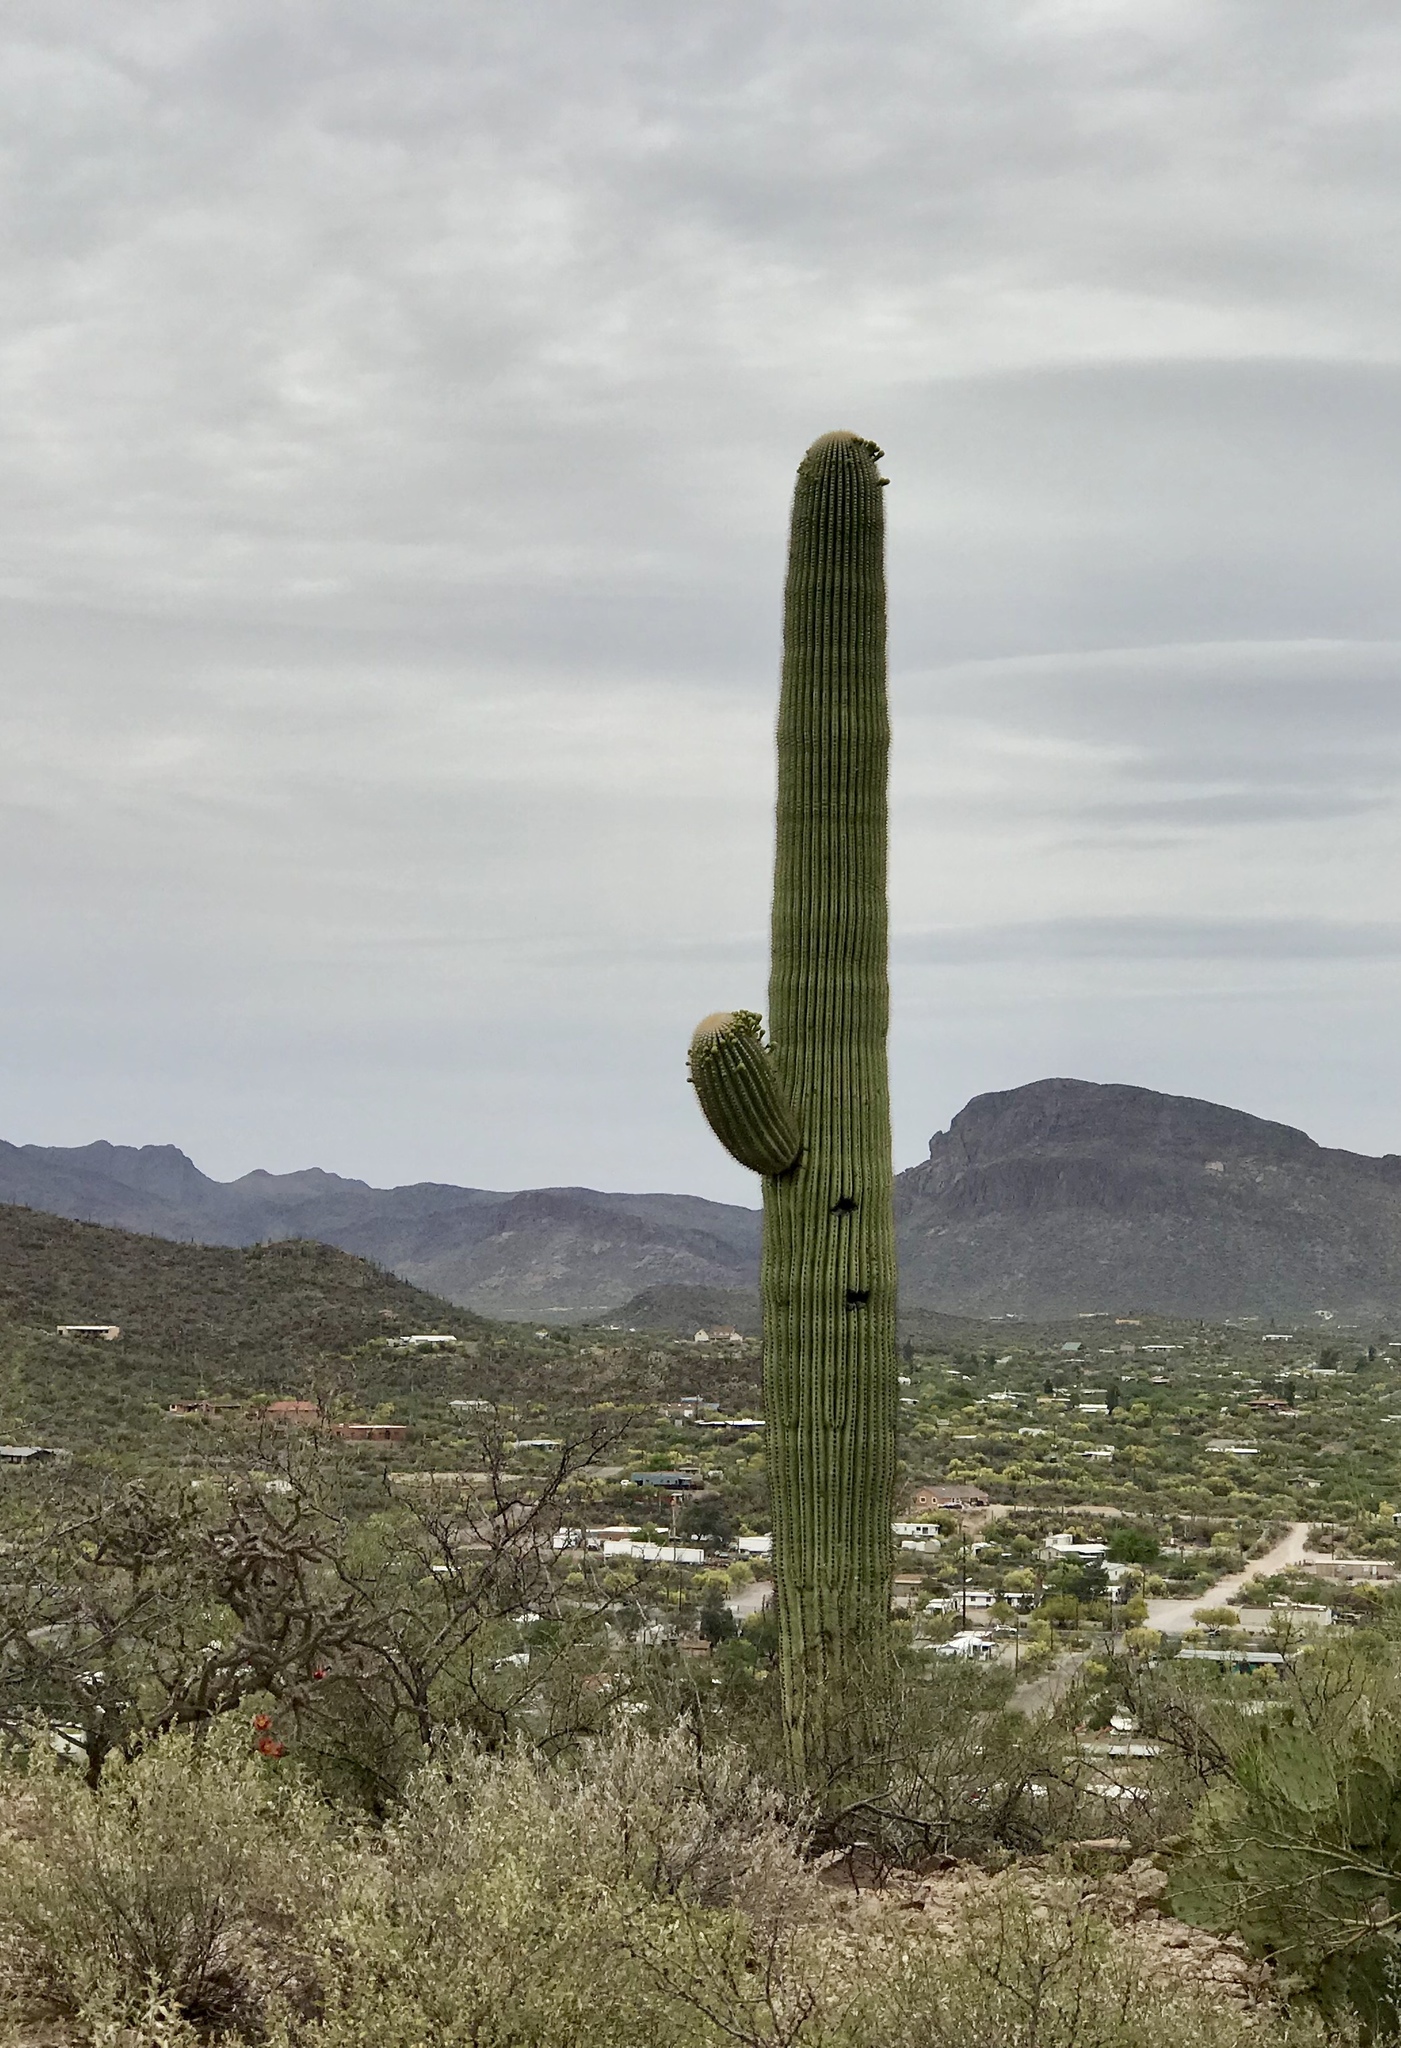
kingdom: Plantae
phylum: Tracheophyta
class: Magnoliopsida
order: Caryophyllales
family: Cactaceae
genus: Carnegiea
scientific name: Carnegiea gigantea
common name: Saguaro
